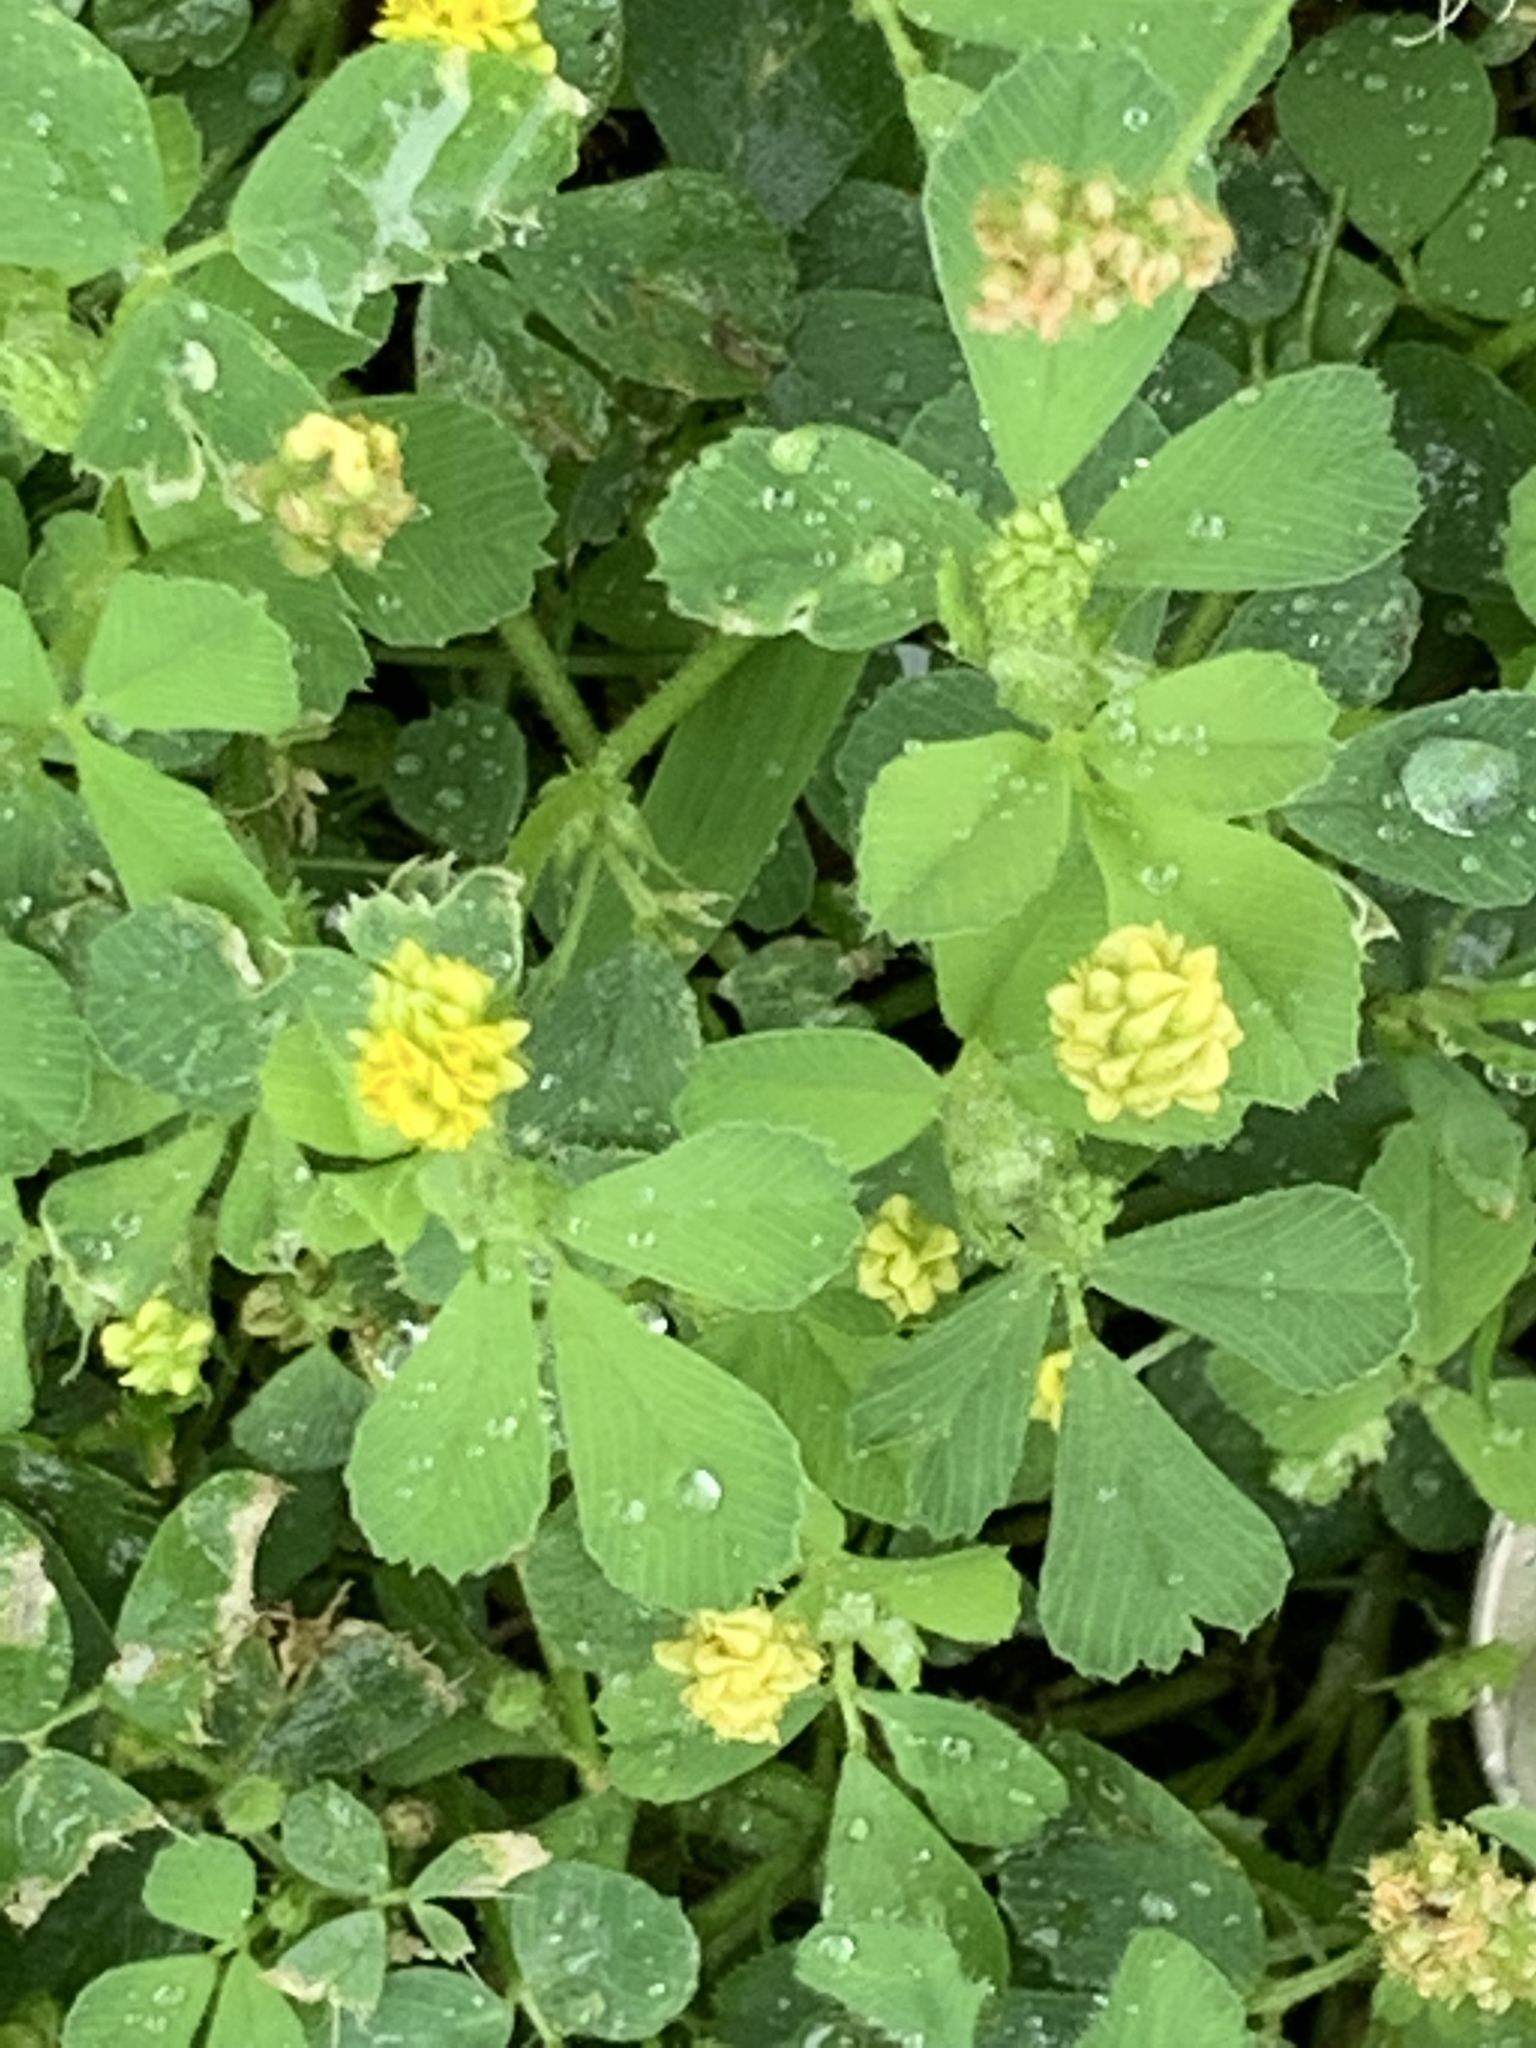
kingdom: Plantae
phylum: Tracheophyta
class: Magnoliopsida
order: Fabales
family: Fabaceae
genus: Medicago
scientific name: Medicago lupulina
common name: Black medick
